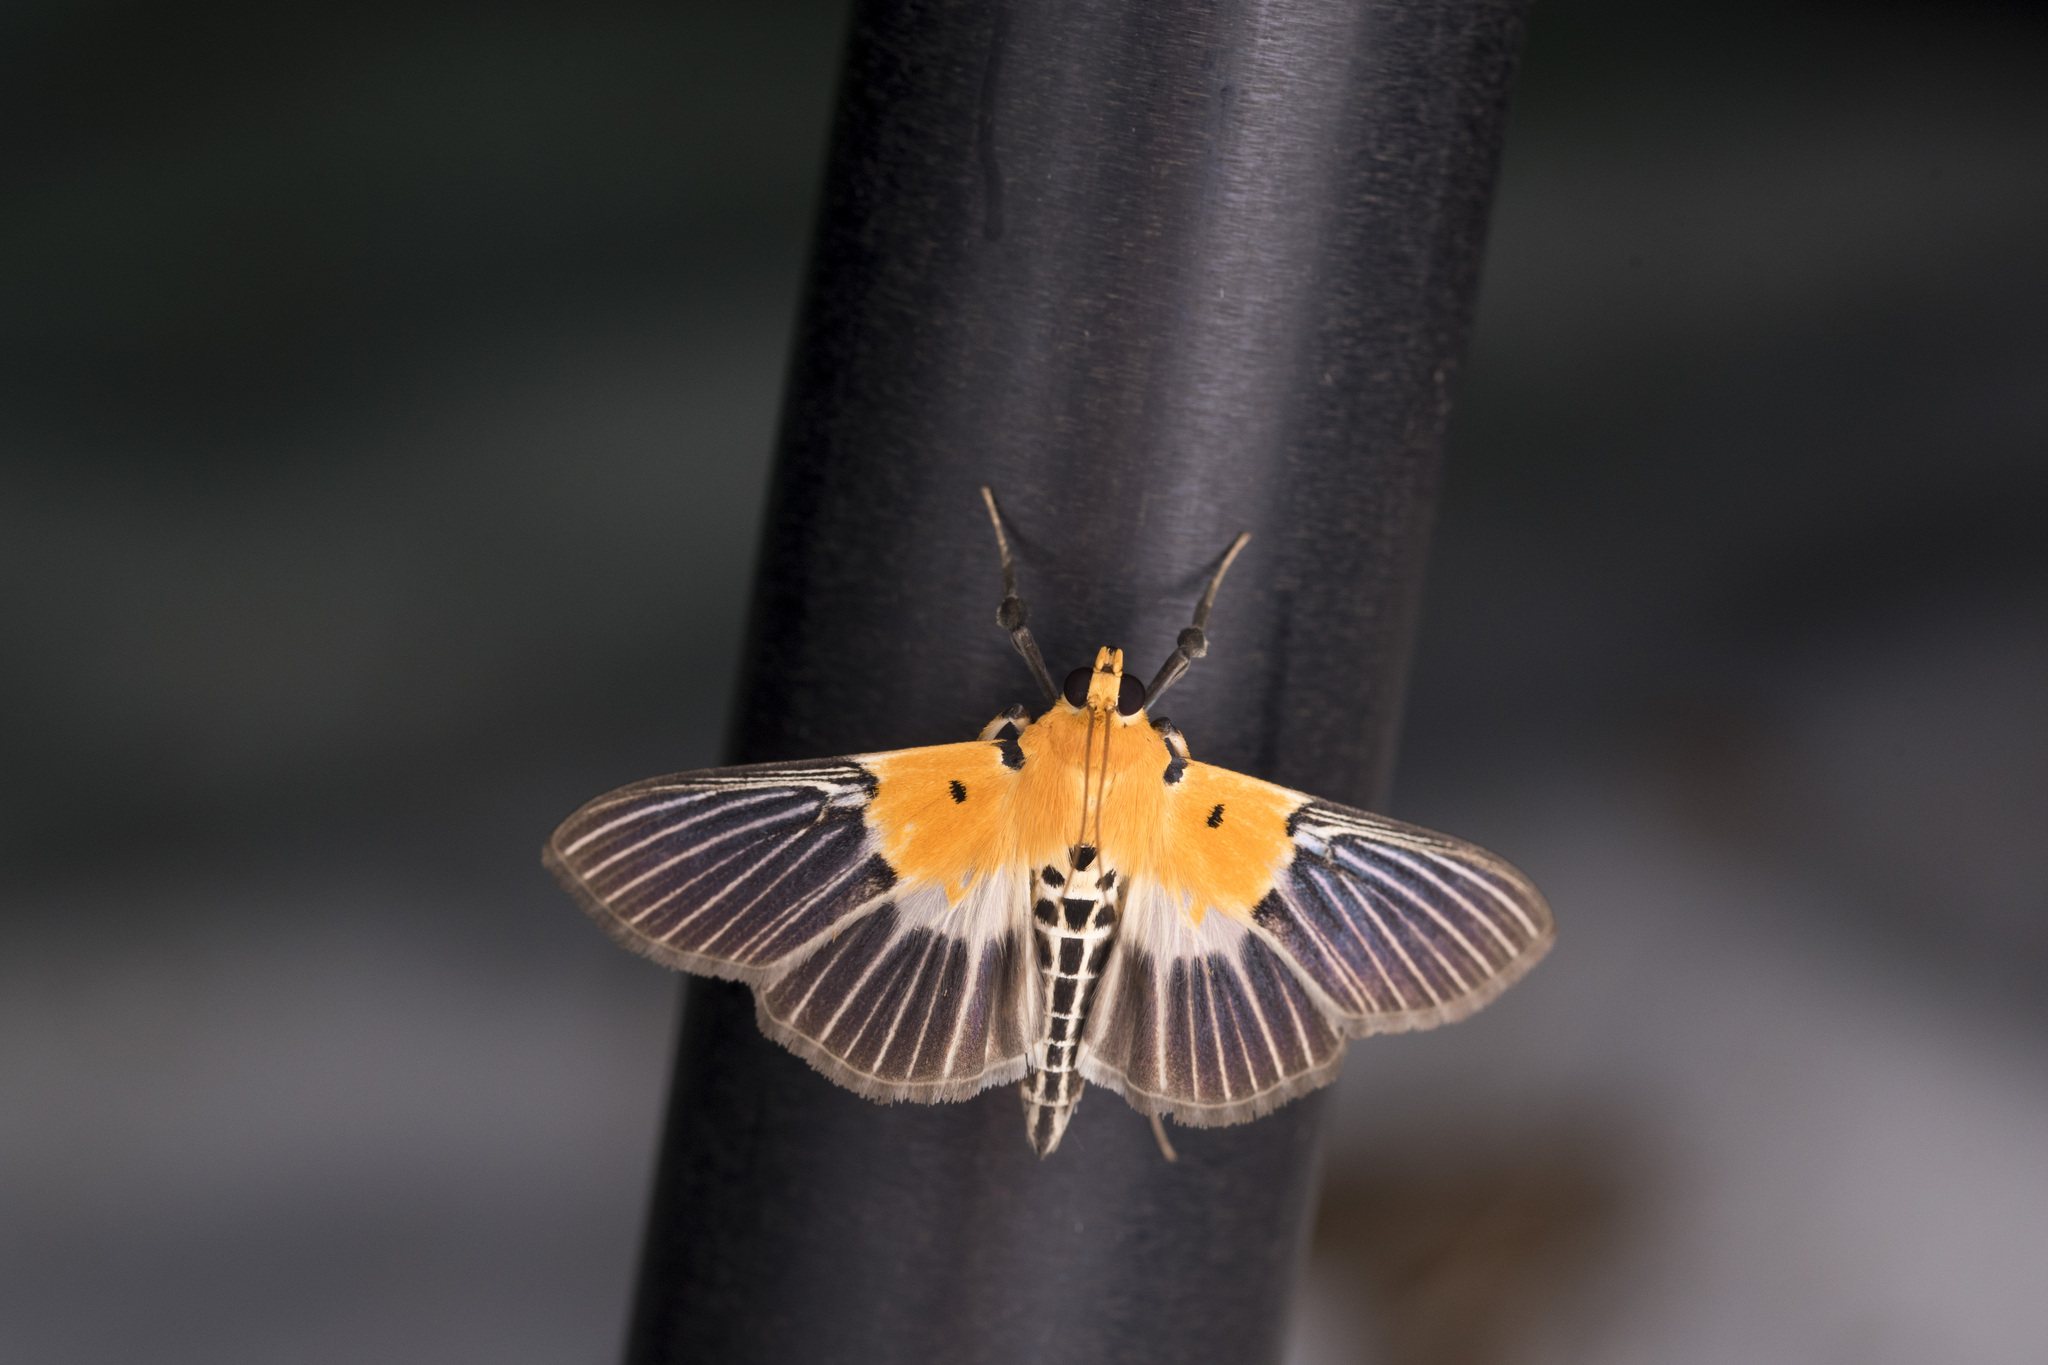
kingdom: Animalia
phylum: Arthropoda
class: Insecta
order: Lepidoptera
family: Crambidae
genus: Nevrina
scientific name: Nevrina procopia
